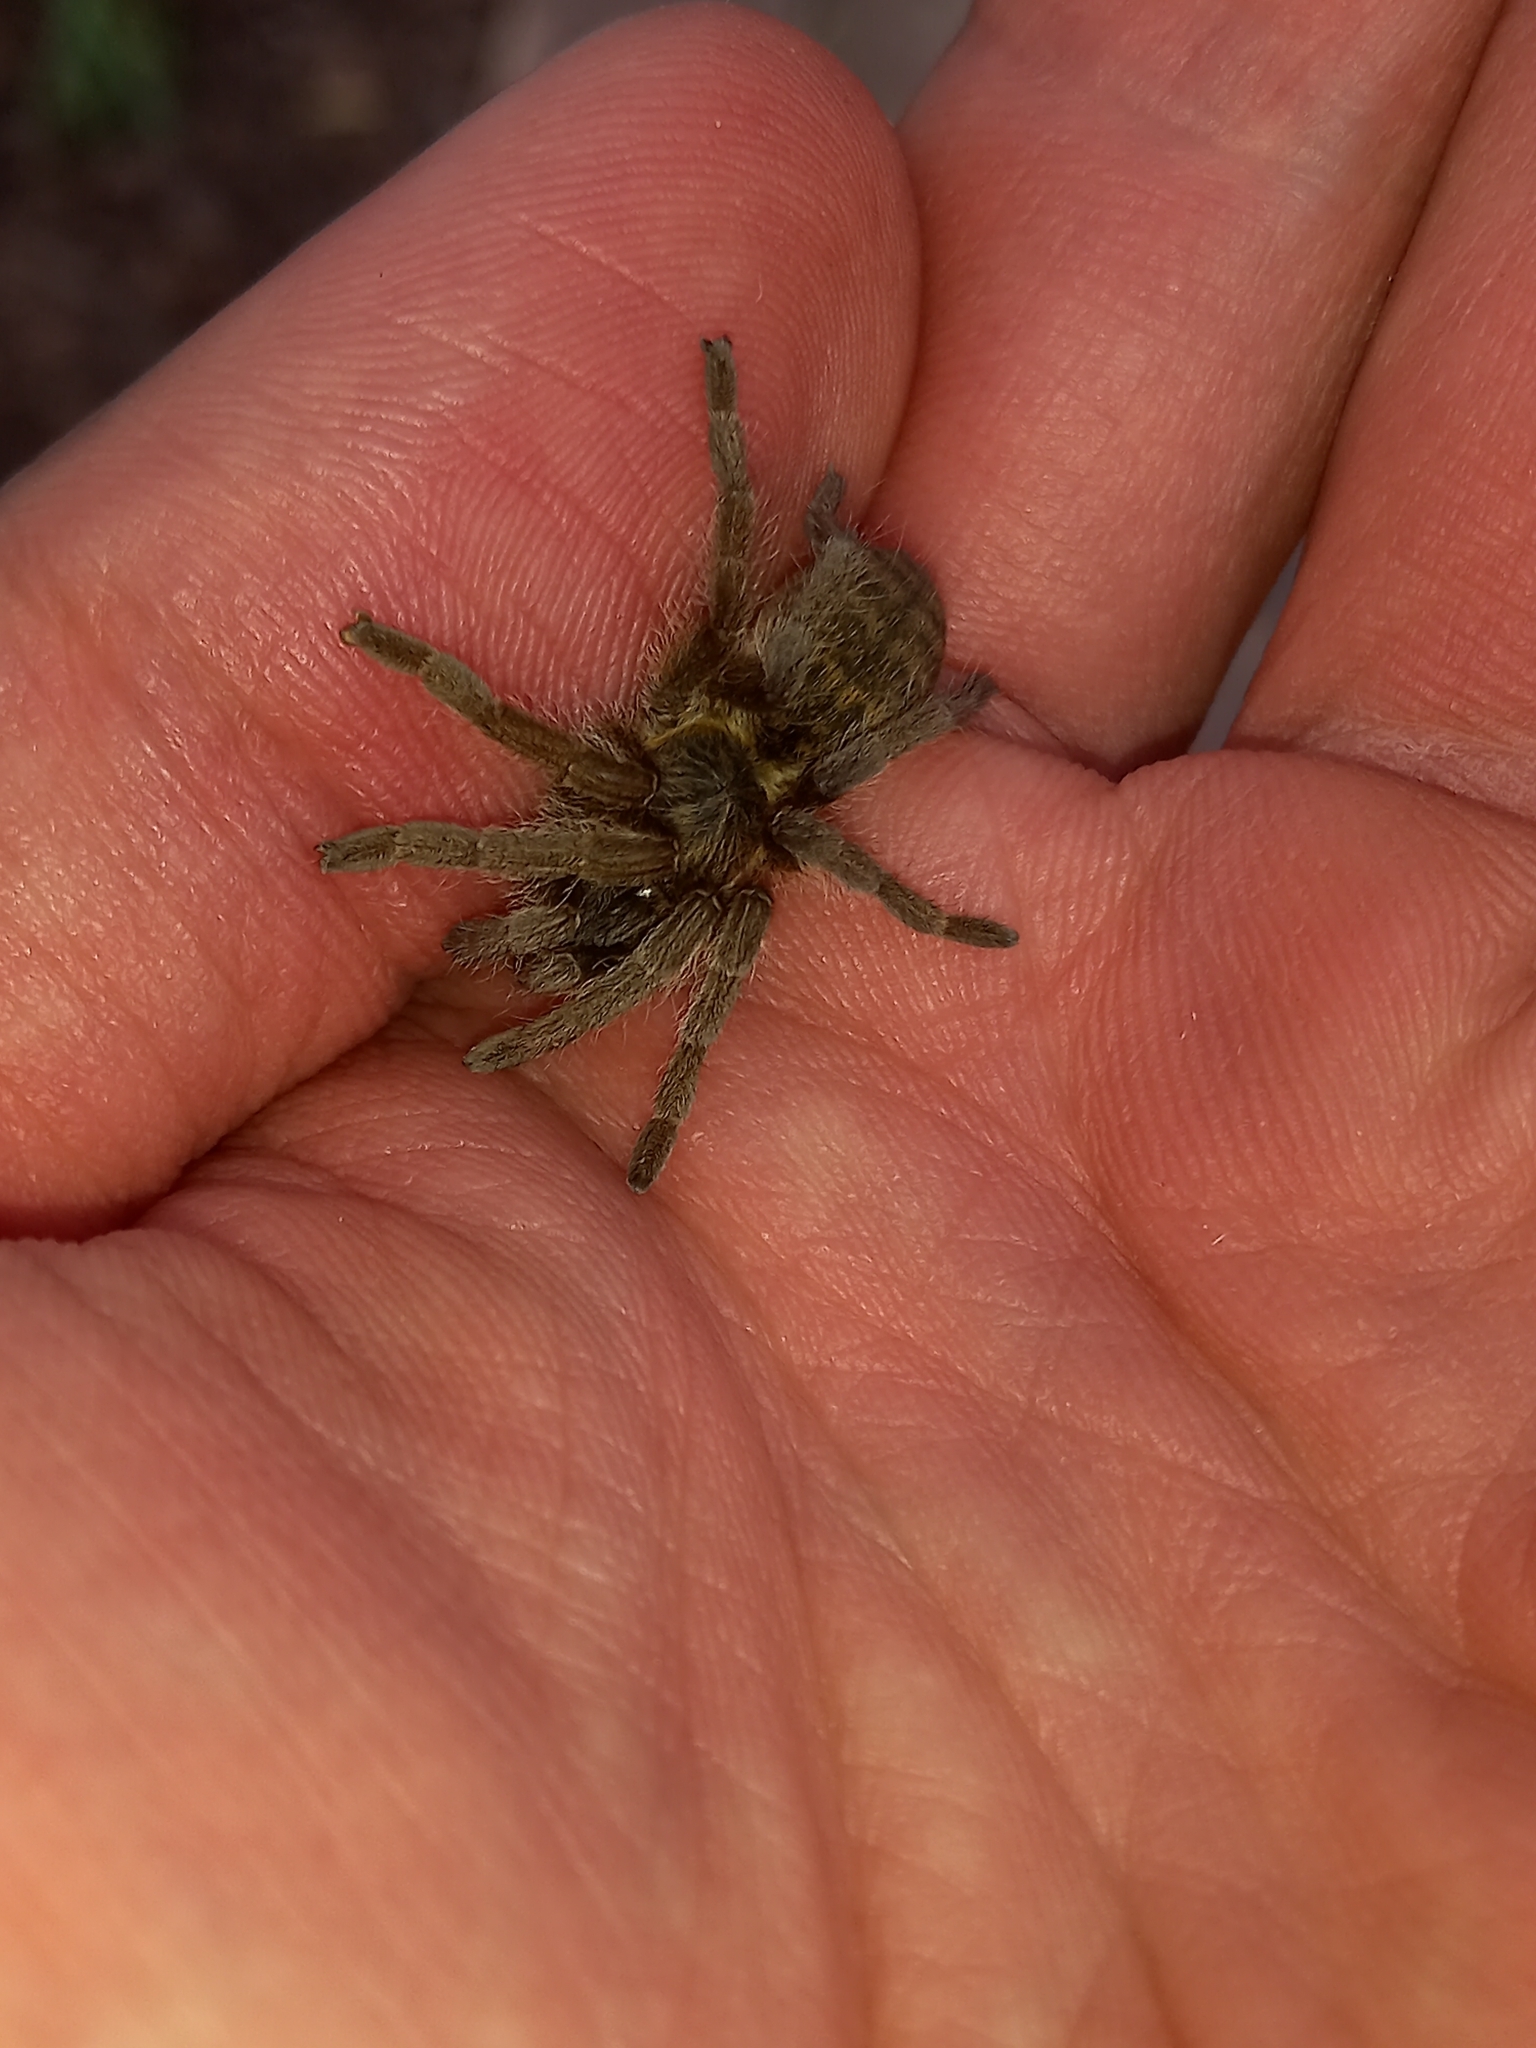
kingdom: Animalia
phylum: Arthropoda
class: Arachnida
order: Araneae
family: Theraphosidae
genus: Harpactirella
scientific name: Harpactirella magna
